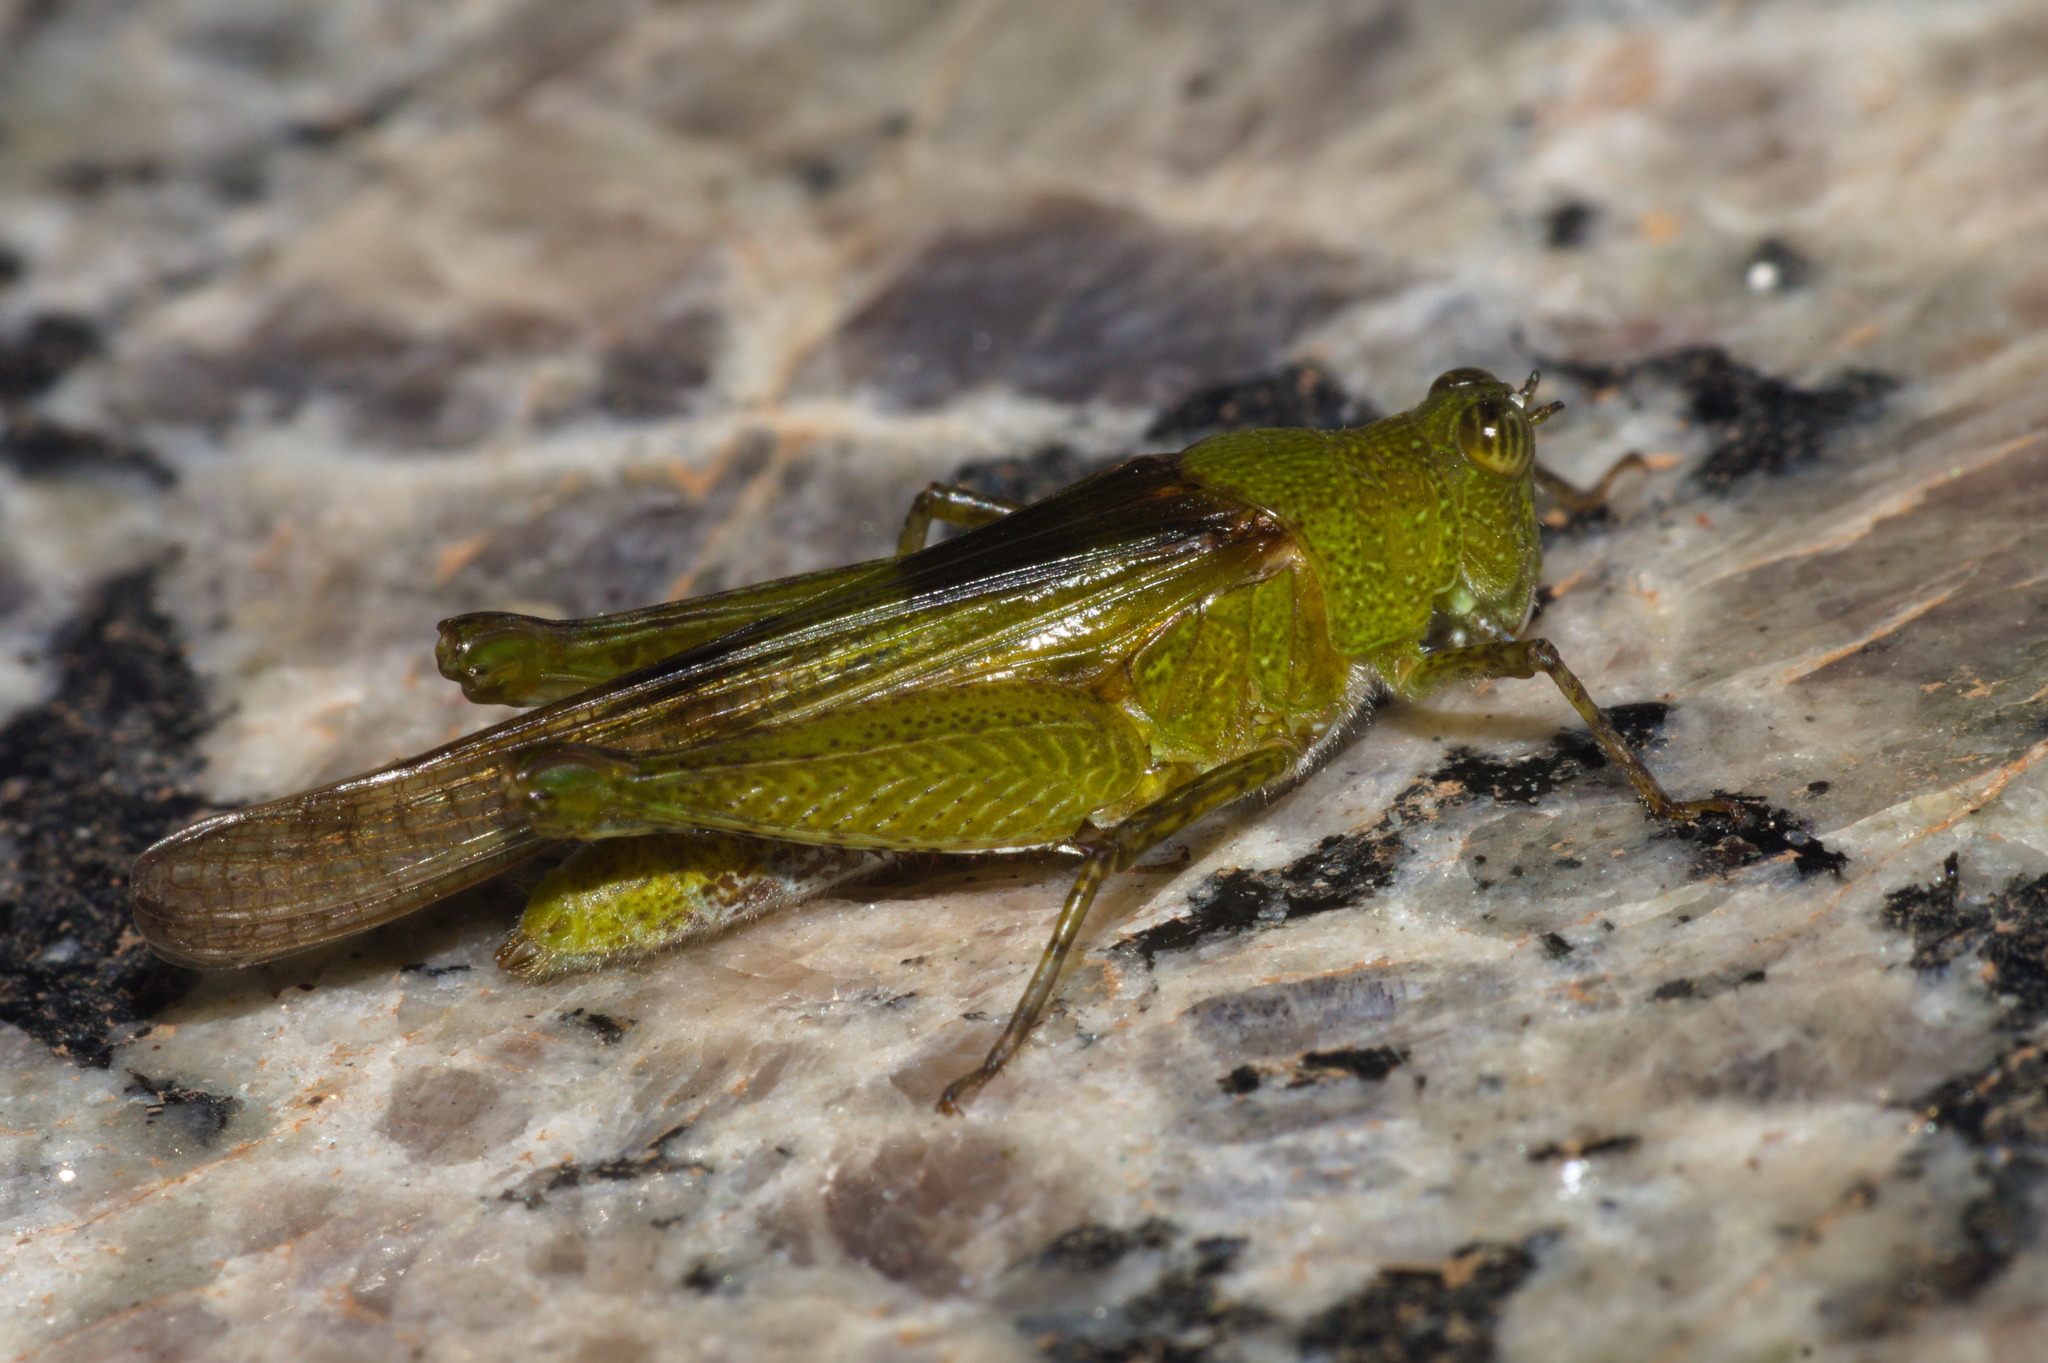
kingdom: Animalia
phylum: Arthropoda
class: Insecta
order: Orthoptera
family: Acrididae
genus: Paulinia
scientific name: Paulinia acuminata
